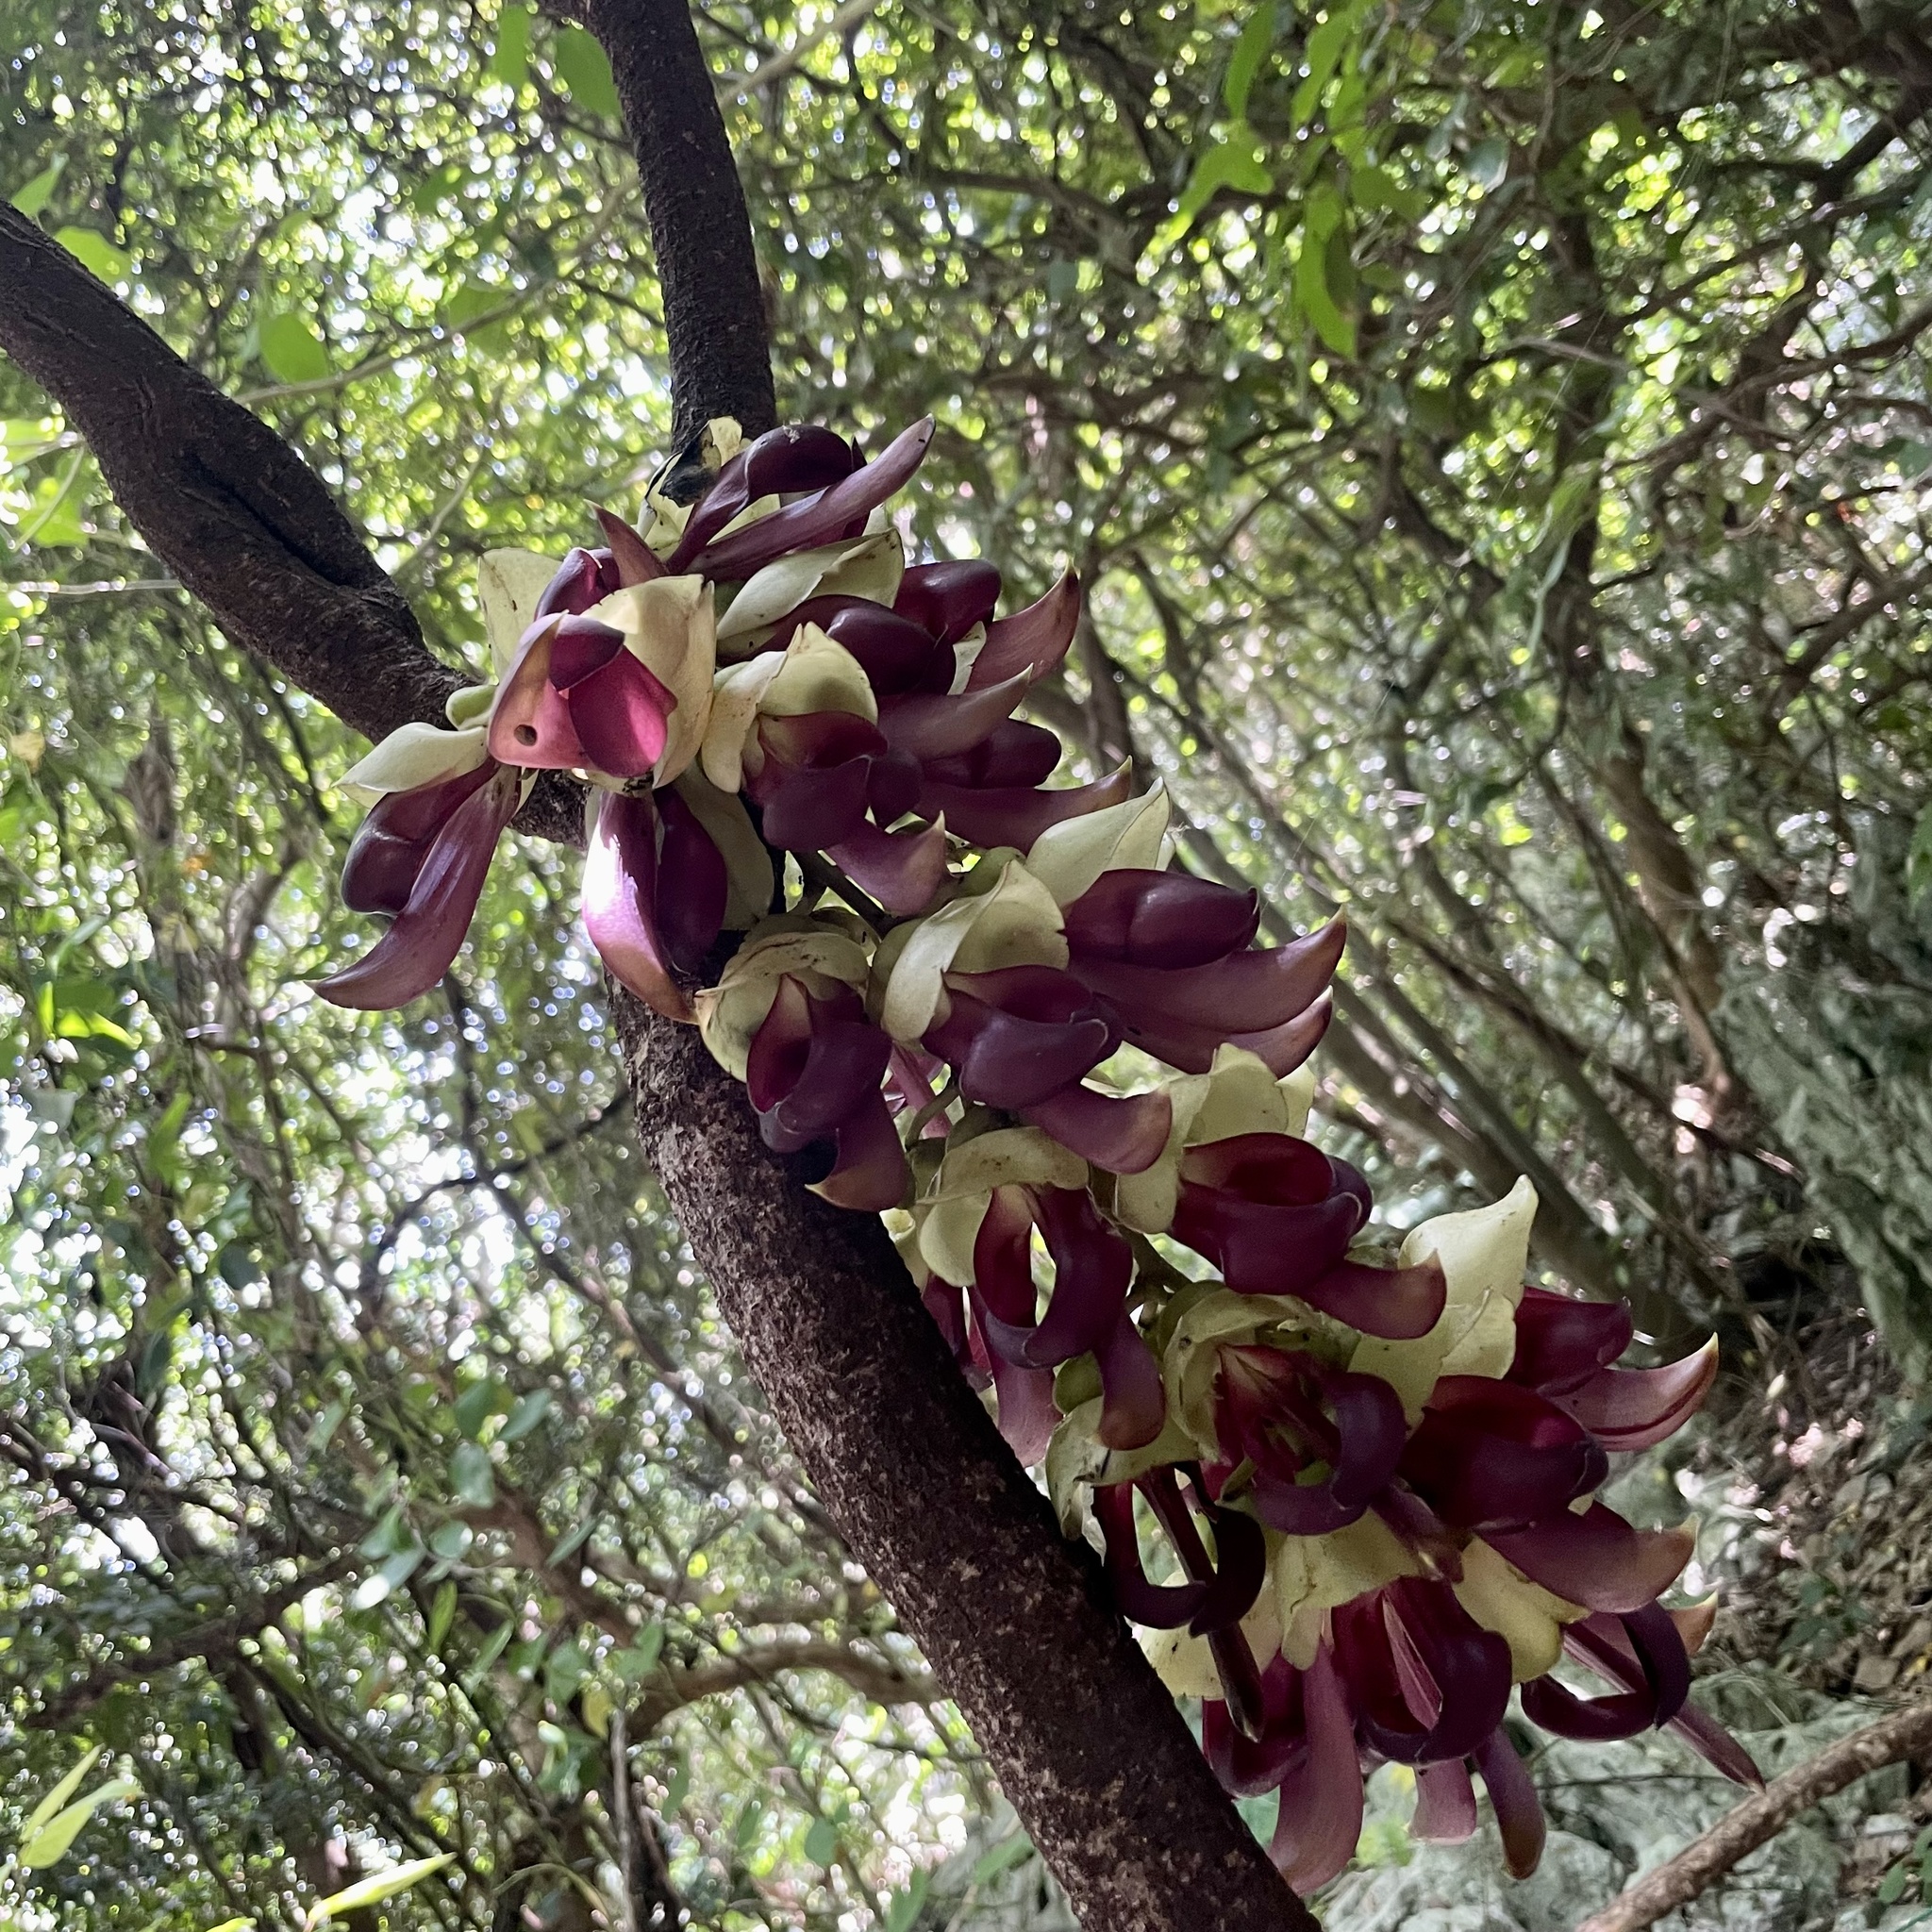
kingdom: Plantae
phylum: Tracheophyta
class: Magnoliopsida
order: Fabales
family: Fabaceae
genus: Mucuna
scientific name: Mucuna macrocarpa
